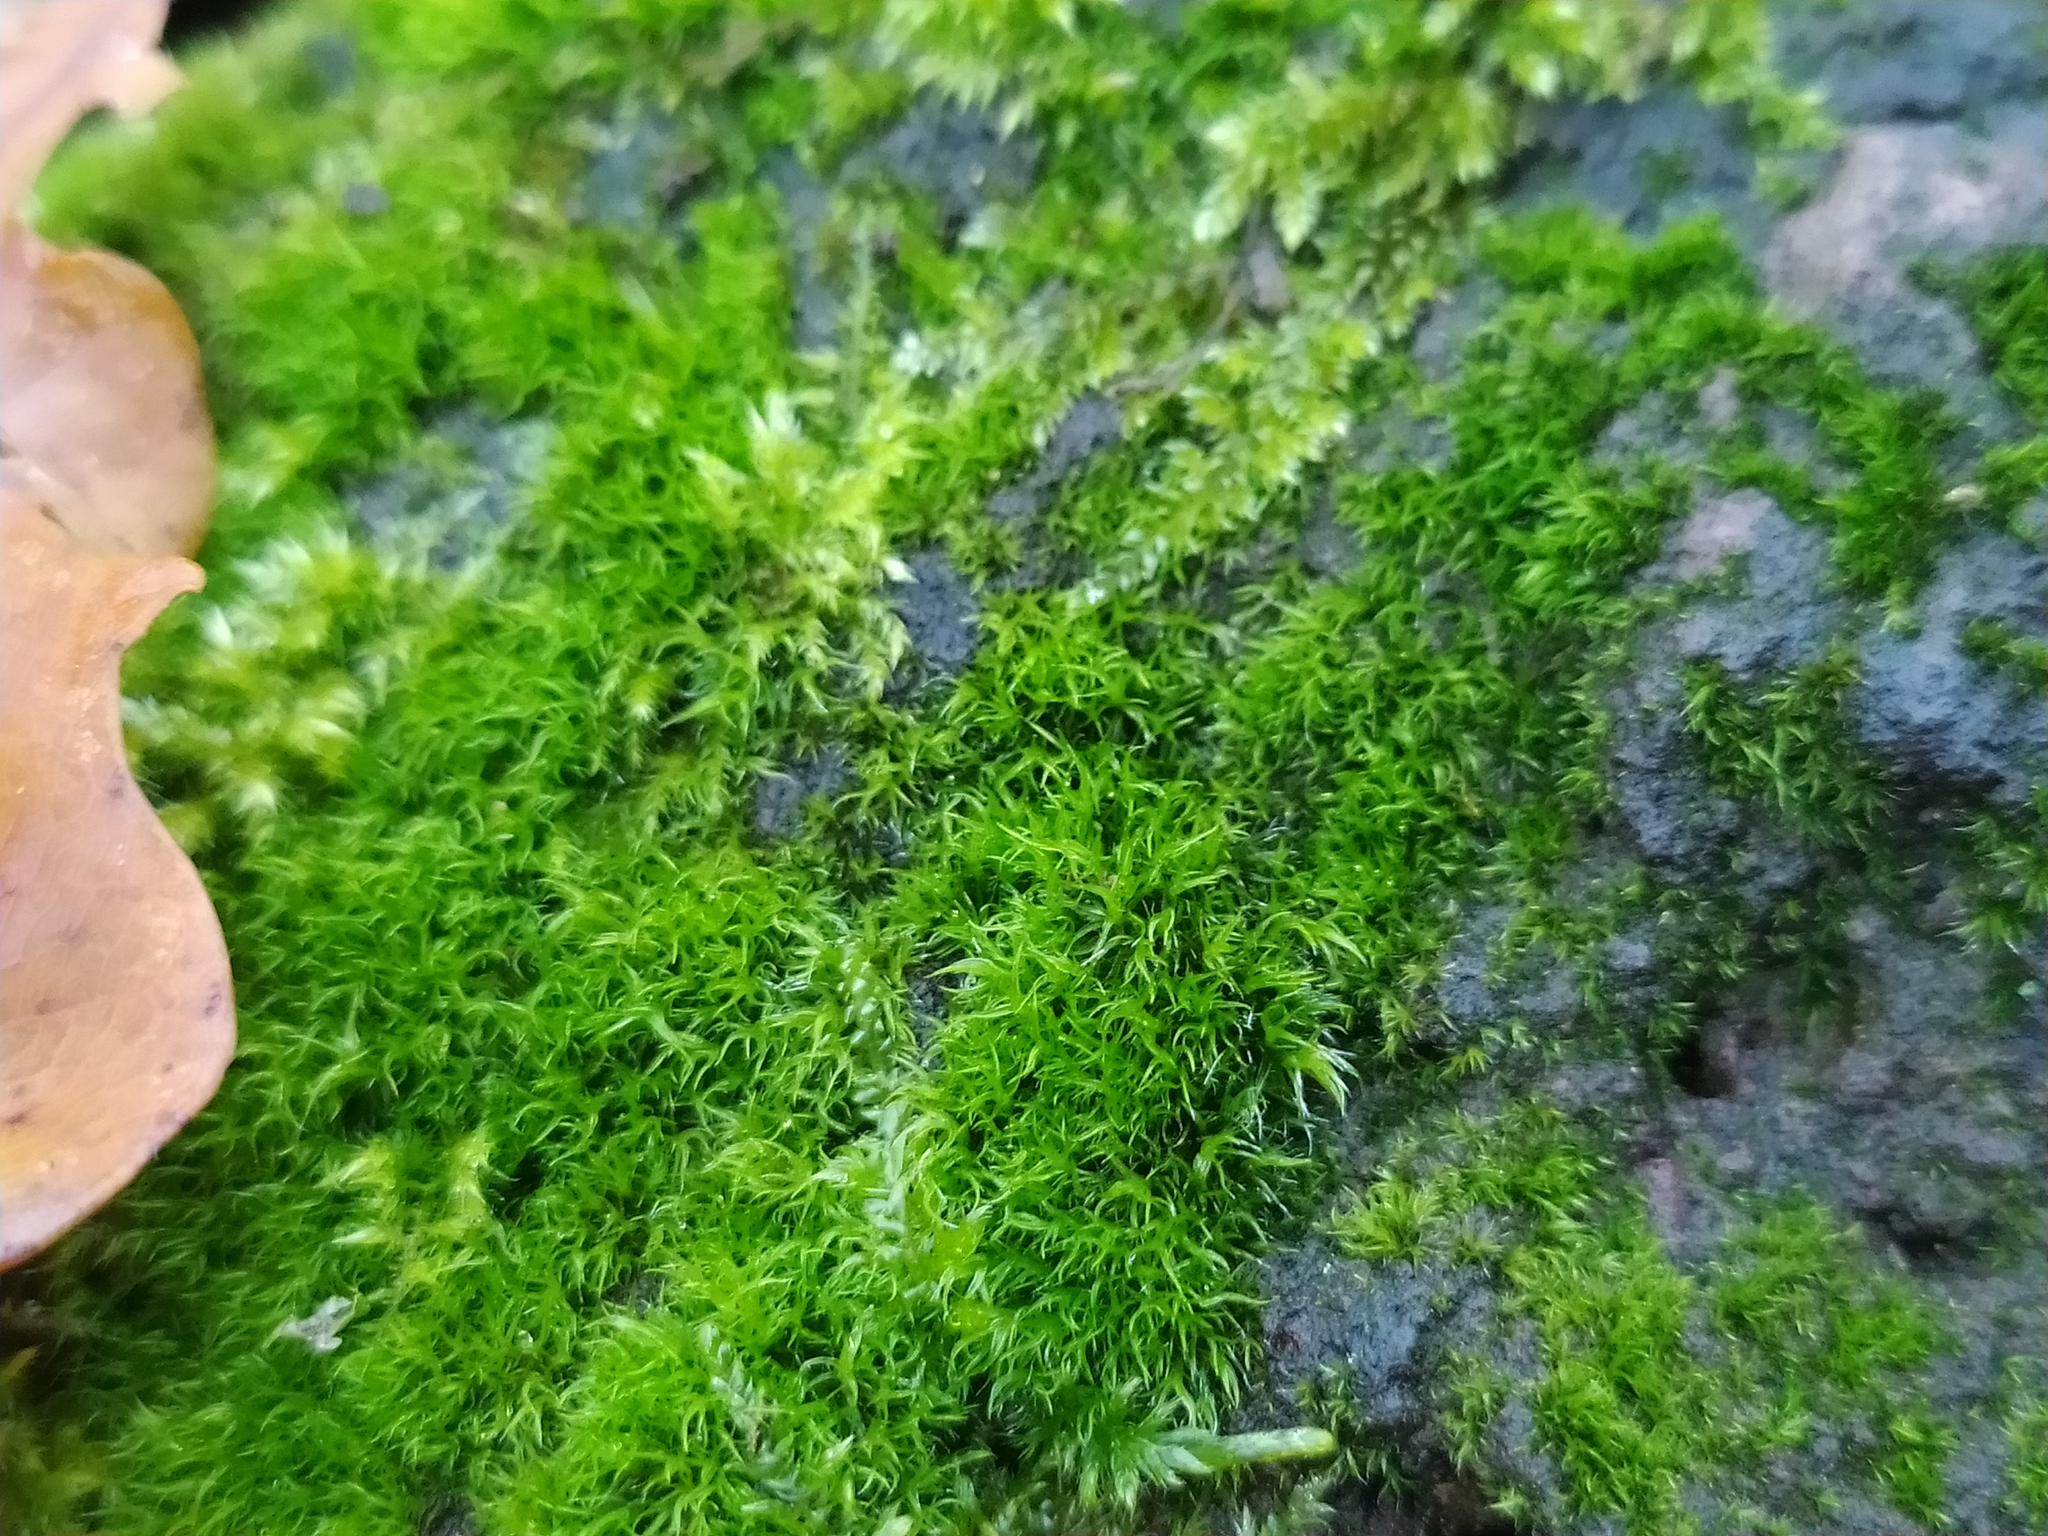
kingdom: Plantae
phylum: Bryophyta
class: Bryopsida
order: Grimmiales
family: Grimmiaceae
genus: Grimmia
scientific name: Grimmia hartmanii
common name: Hartman's grimmia
